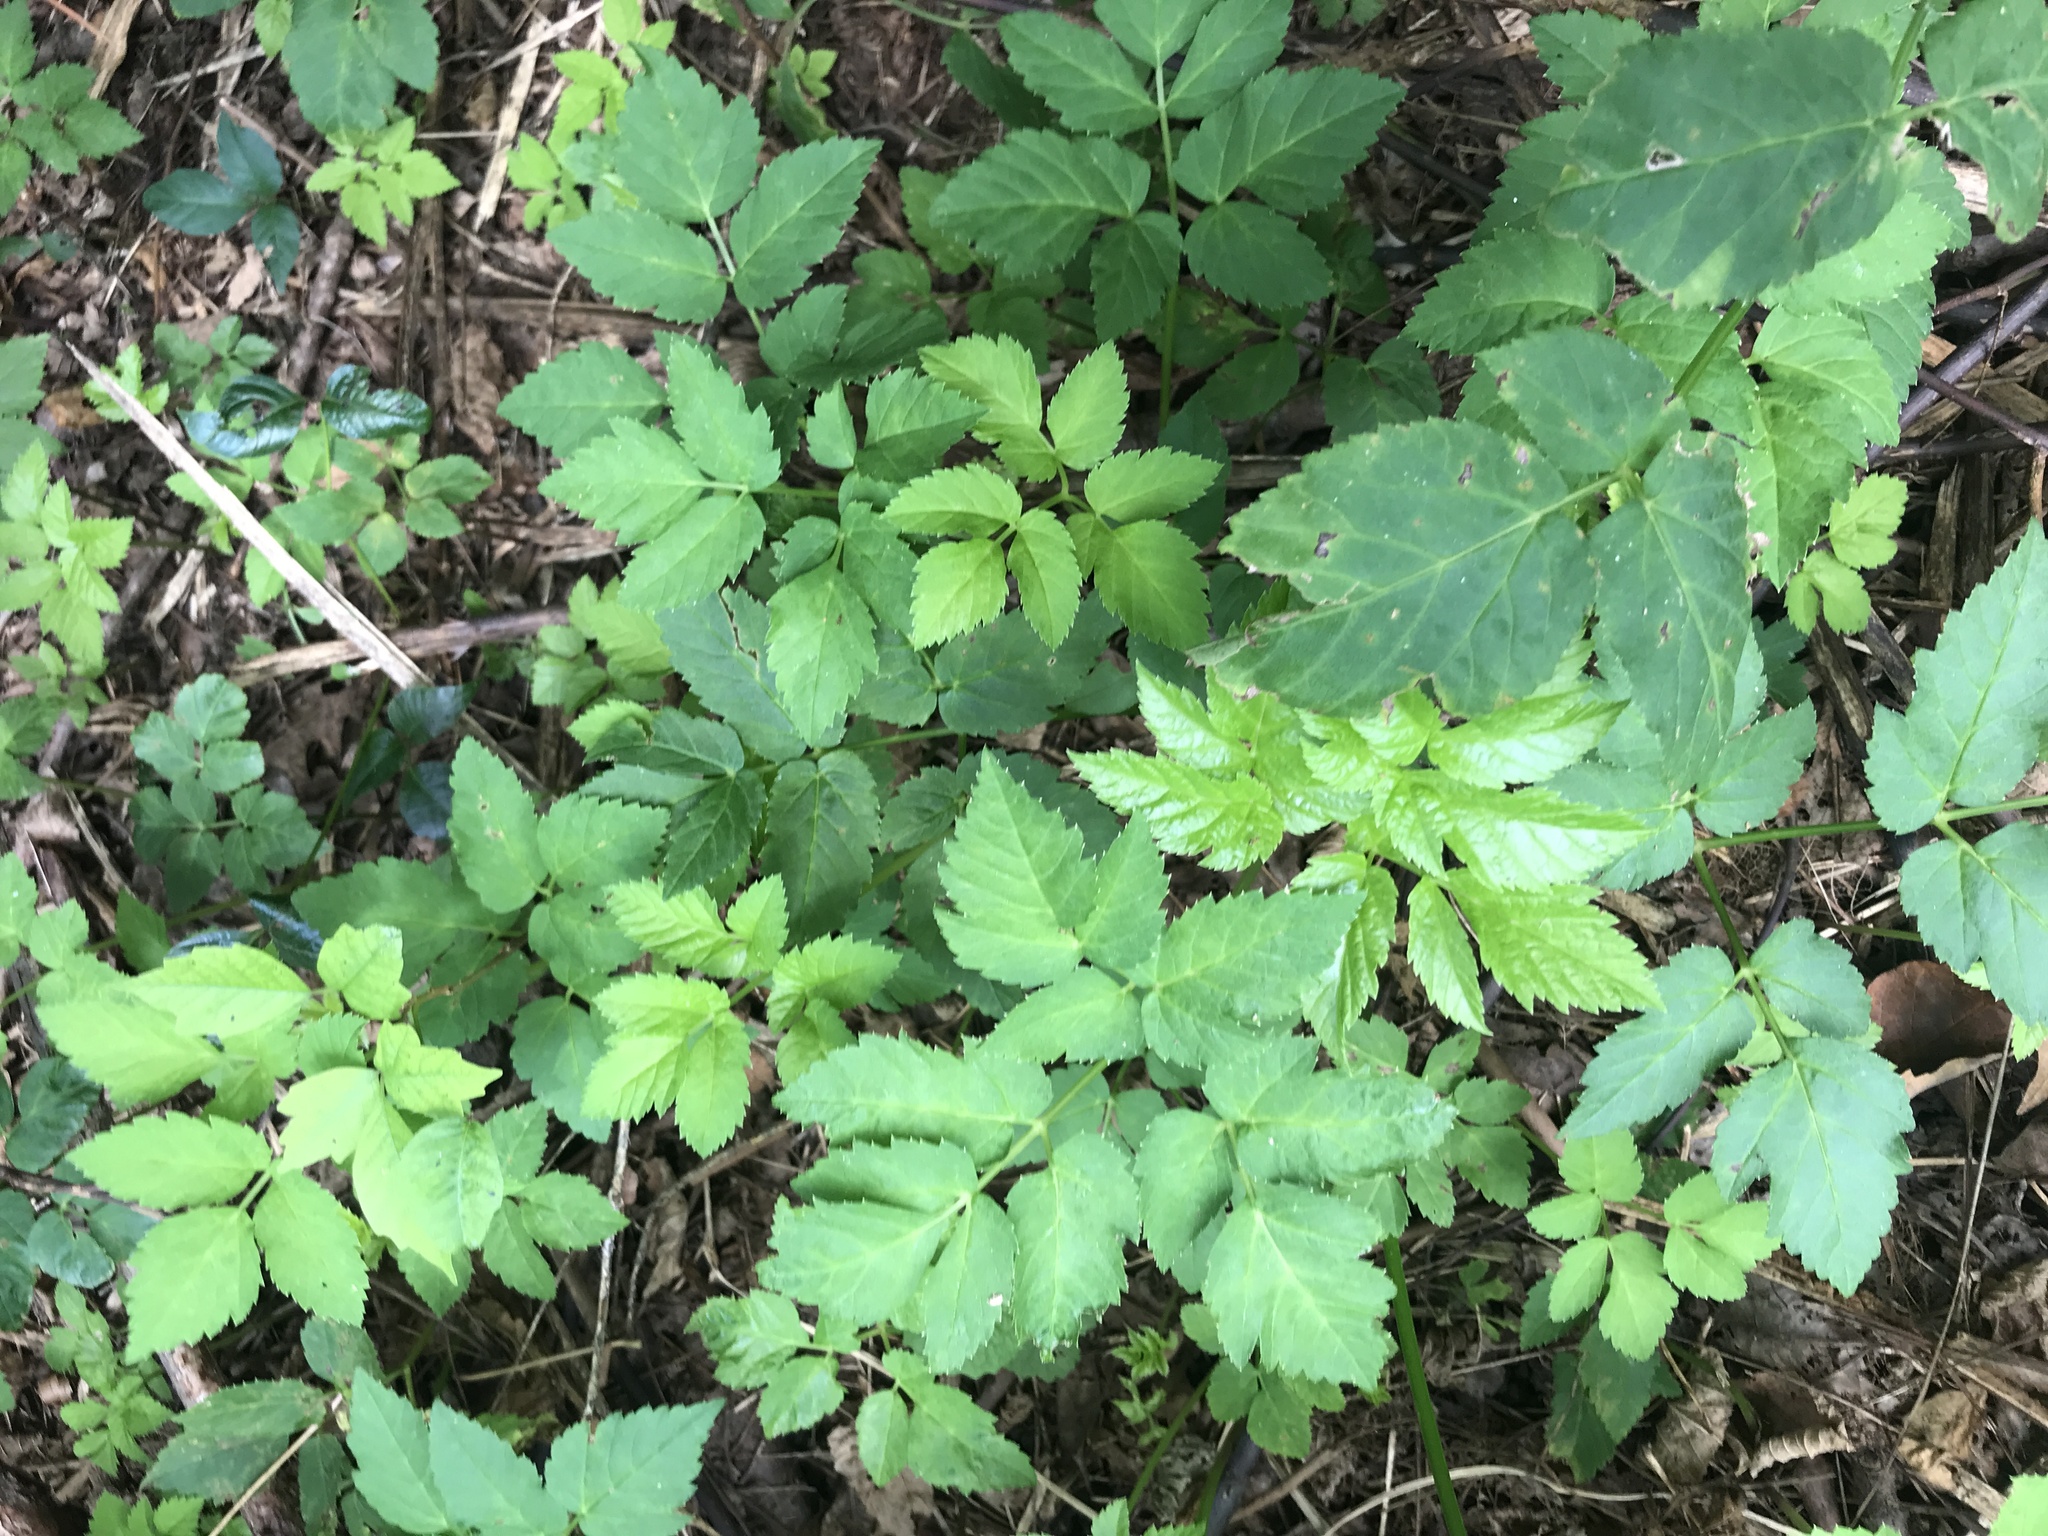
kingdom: Plantae
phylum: Tracheophyta
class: Magnoliopsida
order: Apiales
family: Apiaceae
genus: Aegopodium
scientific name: Aegopodium podagraria
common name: Ground-elder
